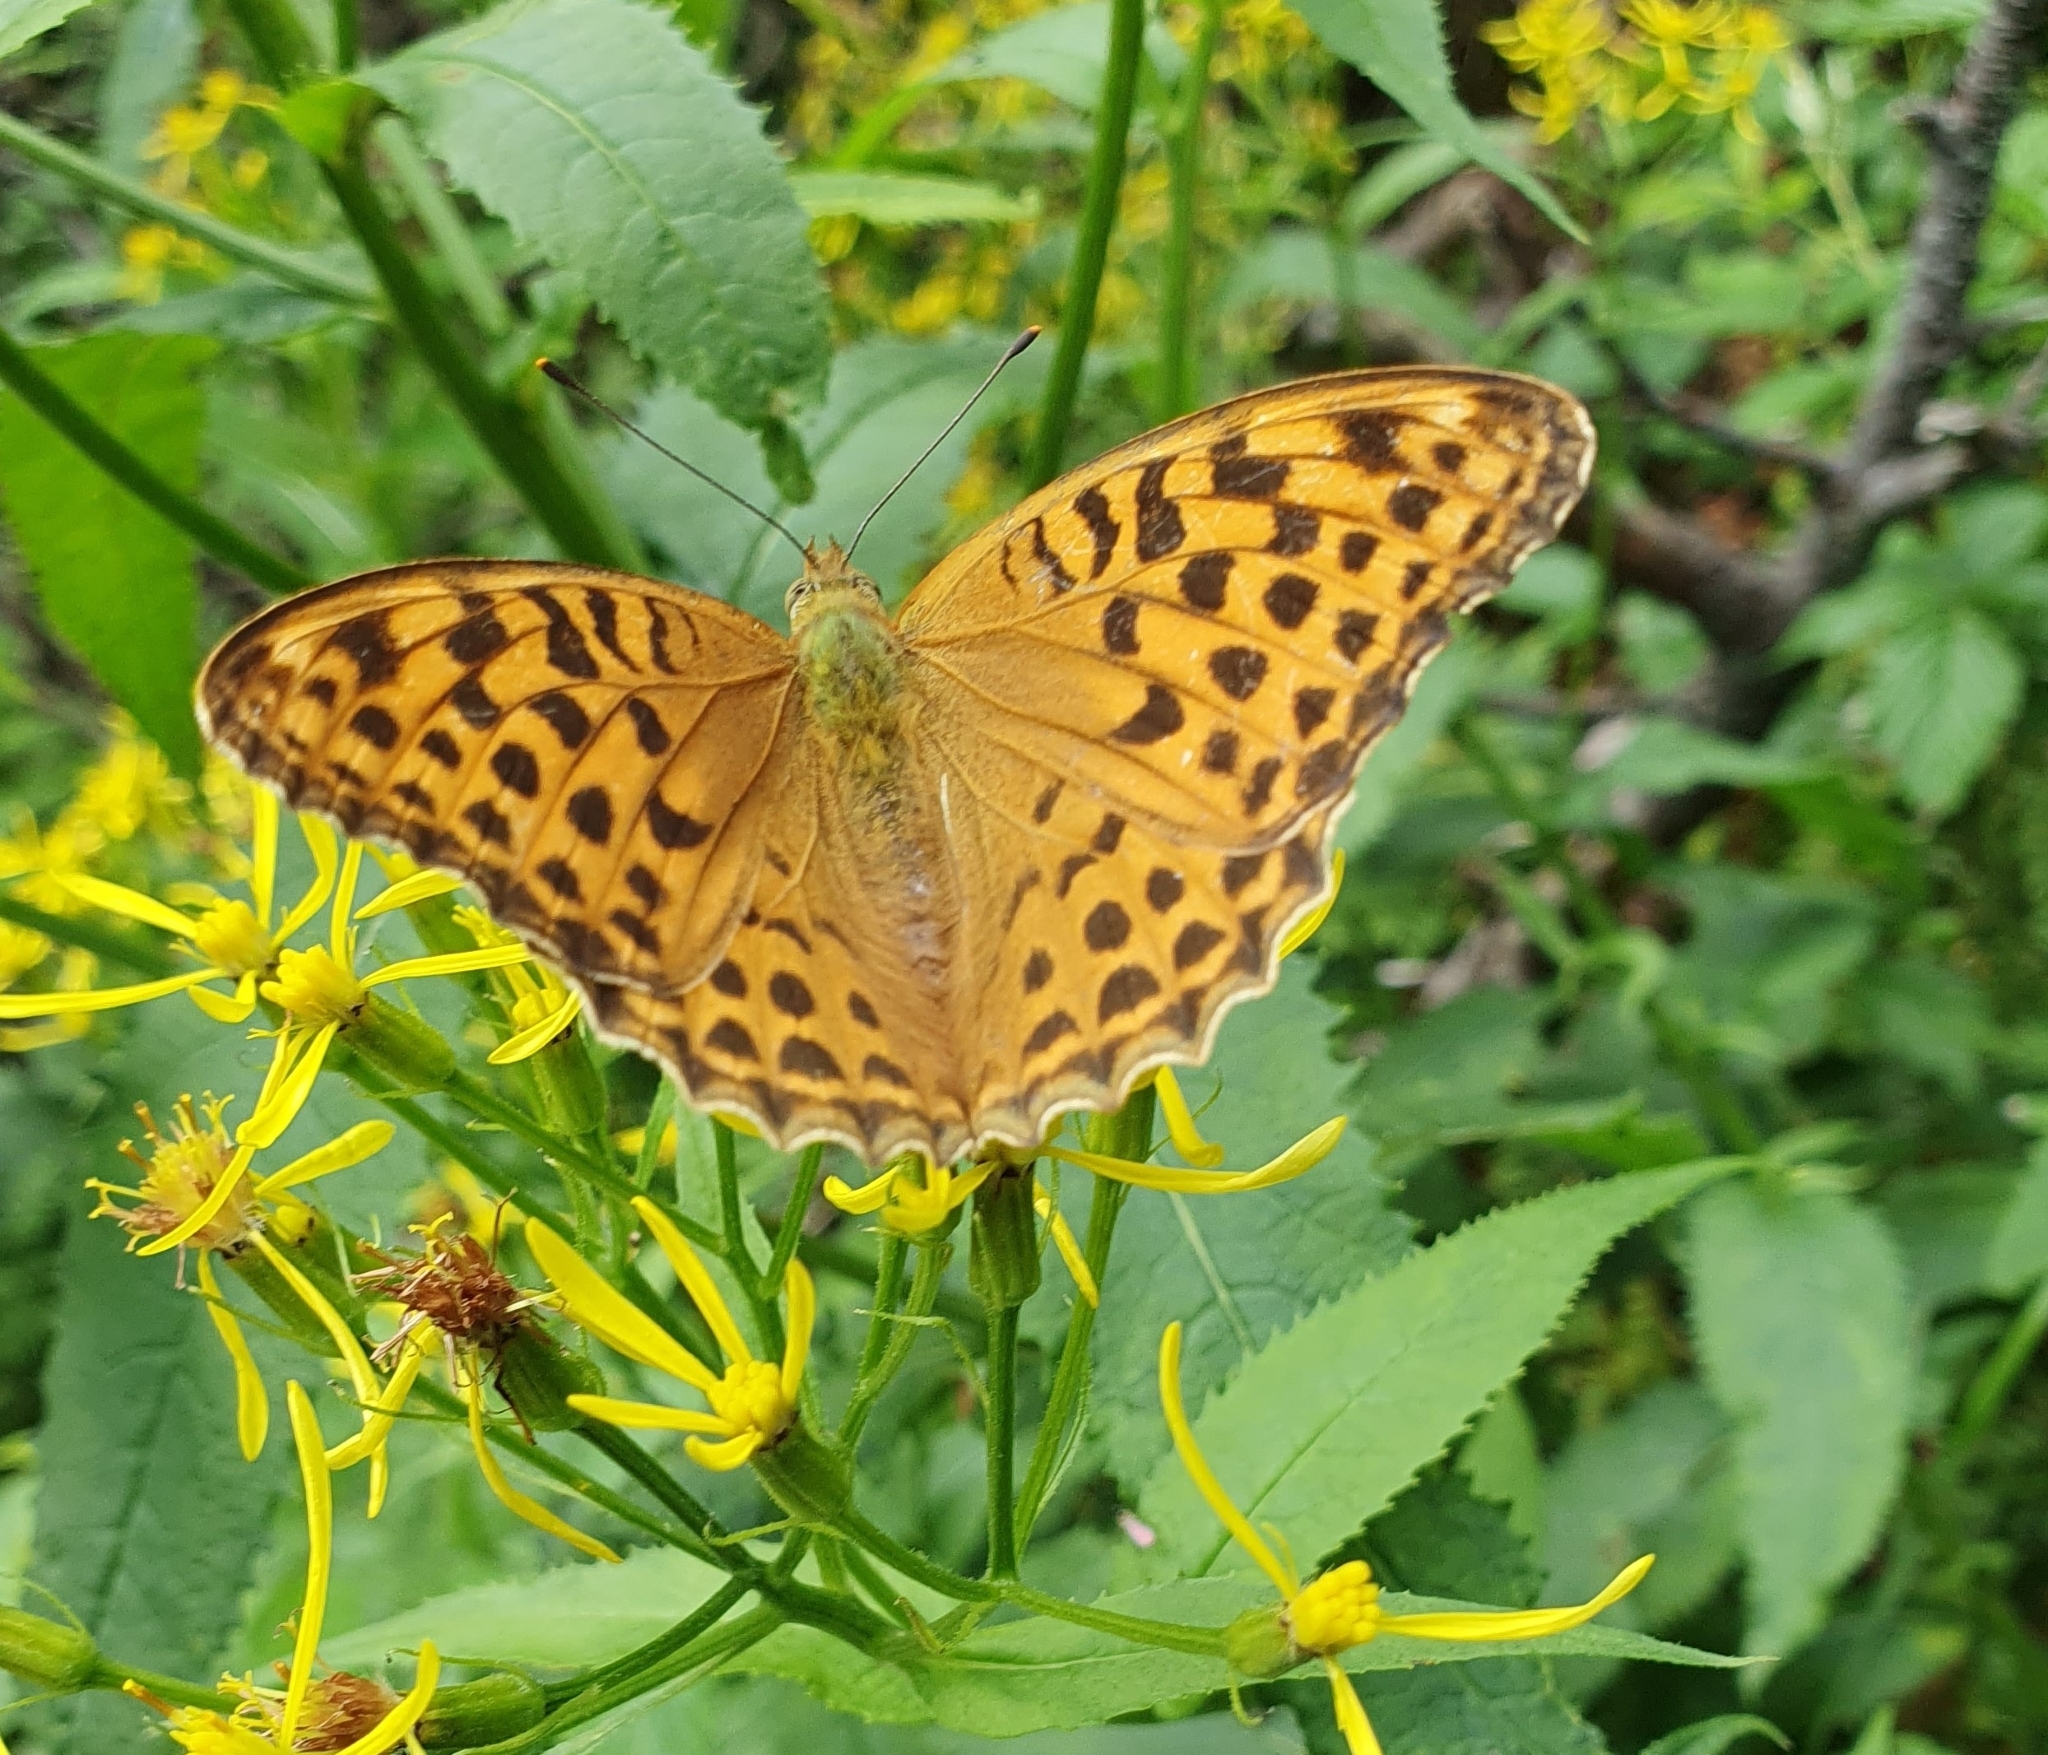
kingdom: Animalia
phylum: Arthropoda
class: Insecta
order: Lepidoptera
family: Nymphalidae
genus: Argynnis
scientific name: Argynnis paphia
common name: Silver-washed fritillary
